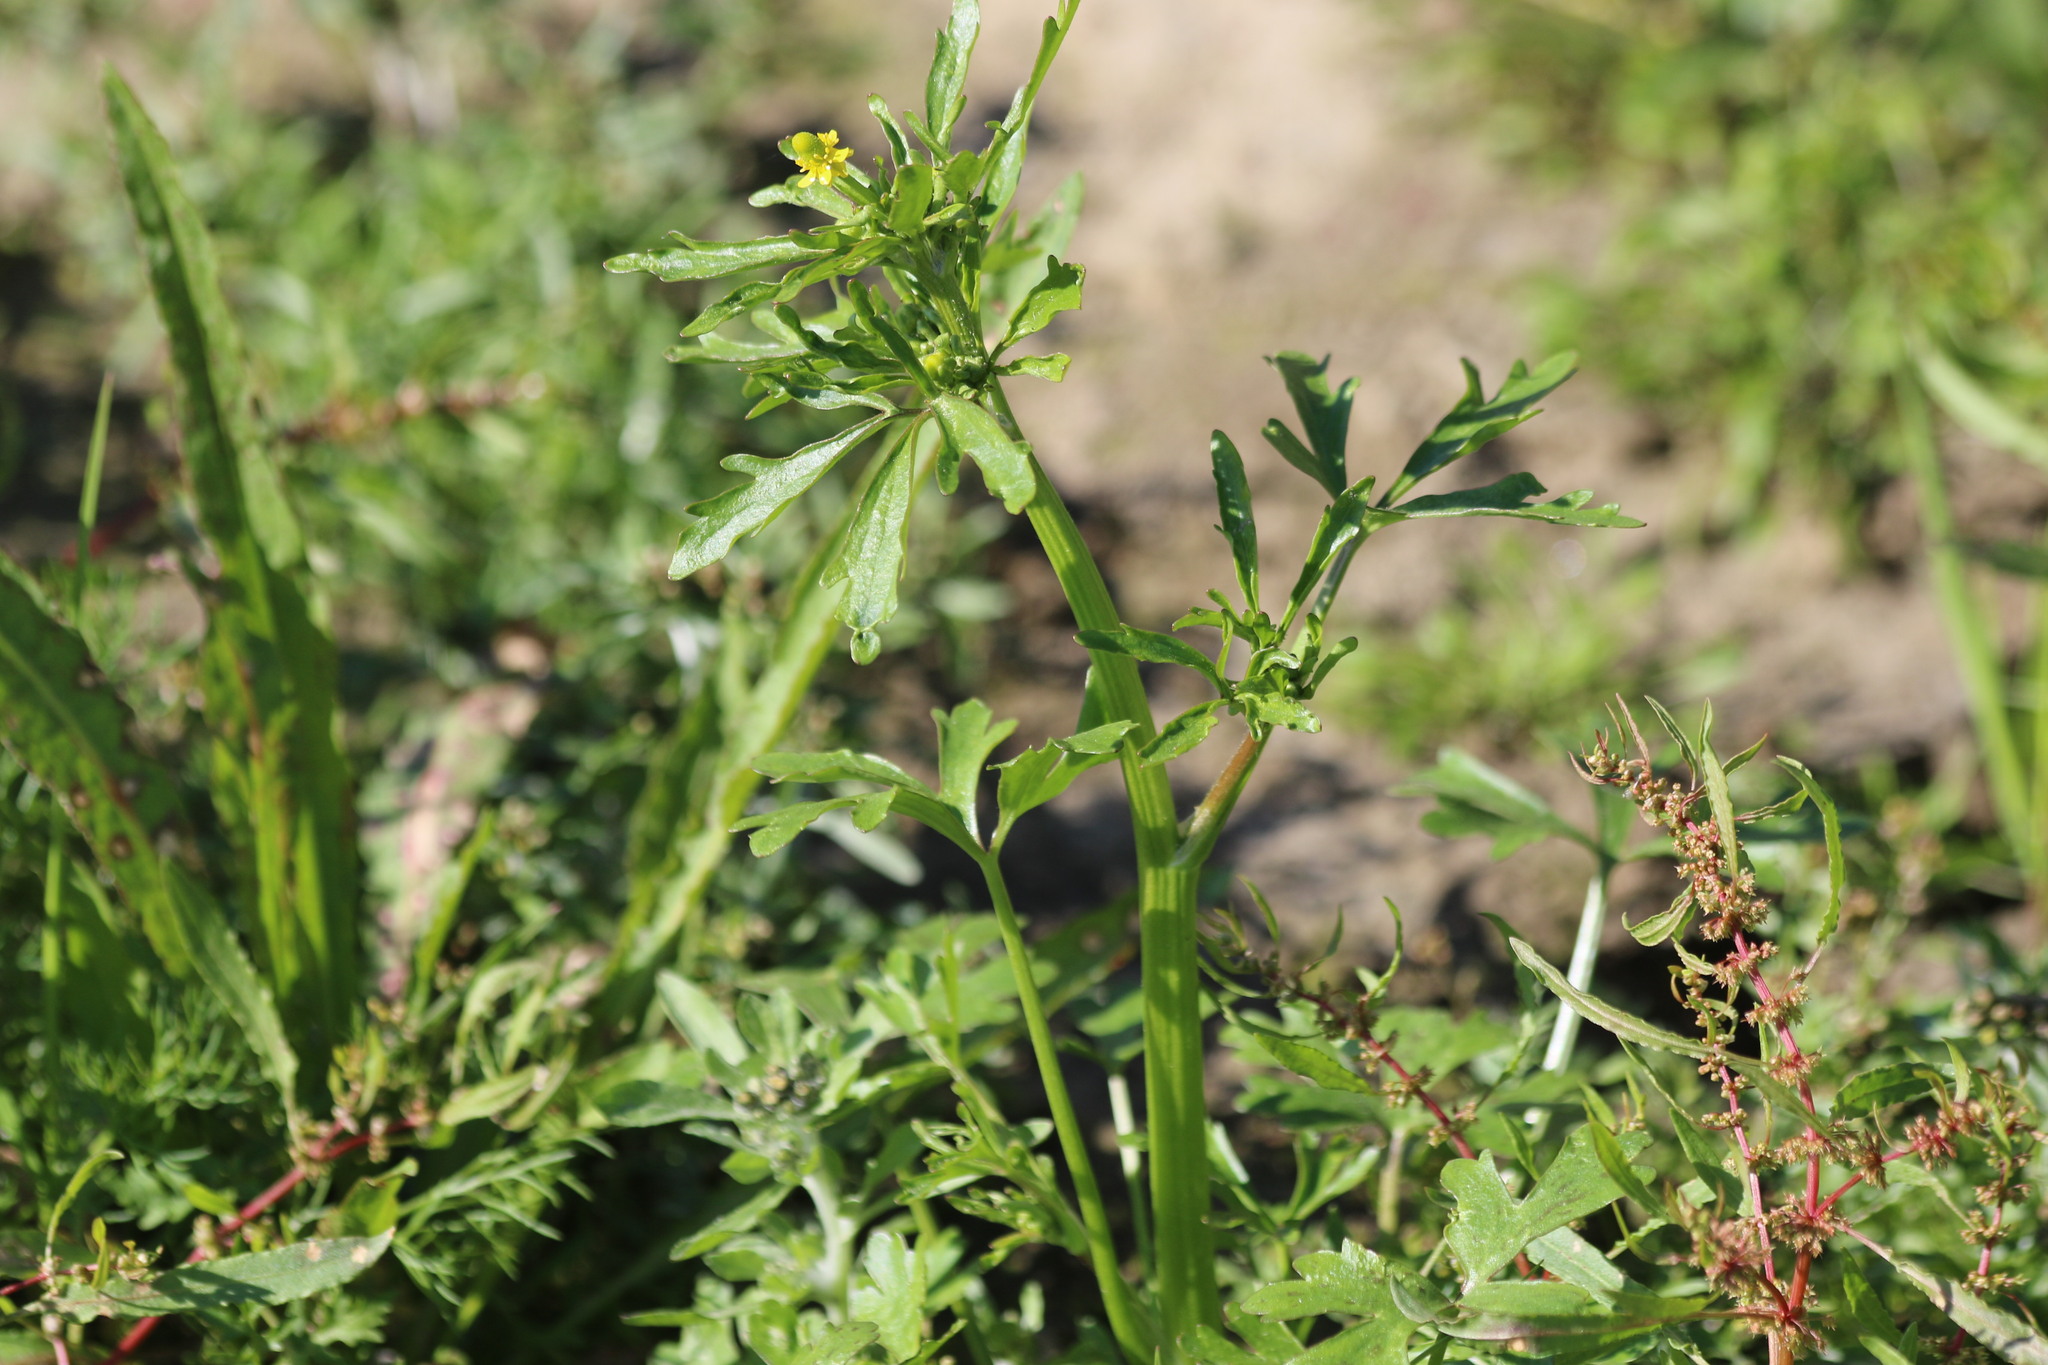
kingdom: Plantae
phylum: Tracheophyta
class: Magnoliopsida
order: Ranunculales
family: Ranunculaceae
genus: Ranunculus
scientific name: Ranunculus sceleratus
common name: Celery-leaved buttercup
